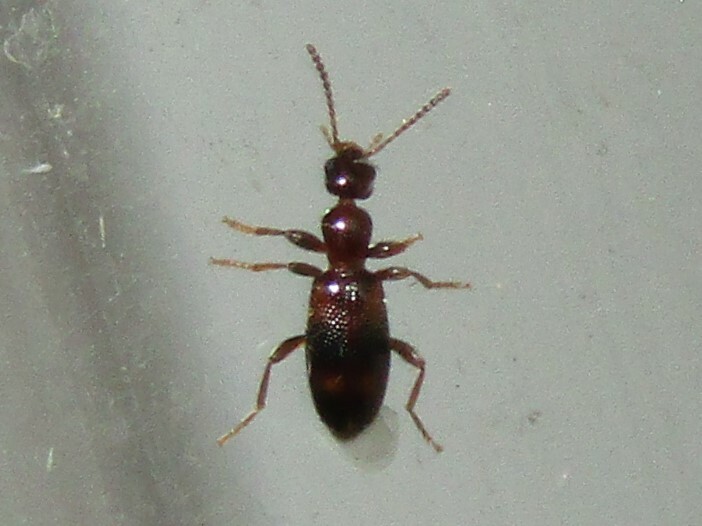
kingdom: Animalia
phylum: Arthropoda
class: Insecta
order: Coleoptera
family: Anthicidae
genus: Vacusus
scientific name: Vacusus vicinus
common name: Antlike flower beetle
